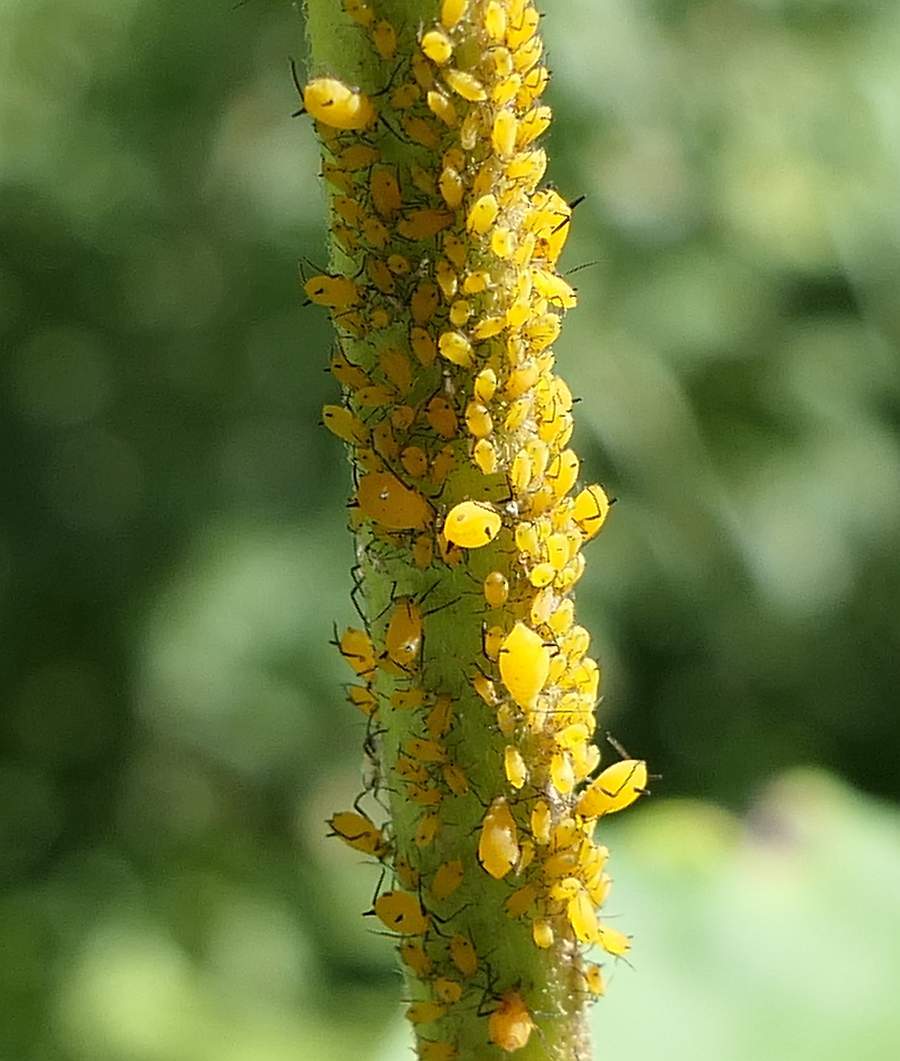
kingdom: Animalia
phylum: Arthropoda
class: Insecta
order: Hemiptera
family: Aphididae
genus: Aphis
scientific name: Aphis nerii
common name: Oleander aphid
